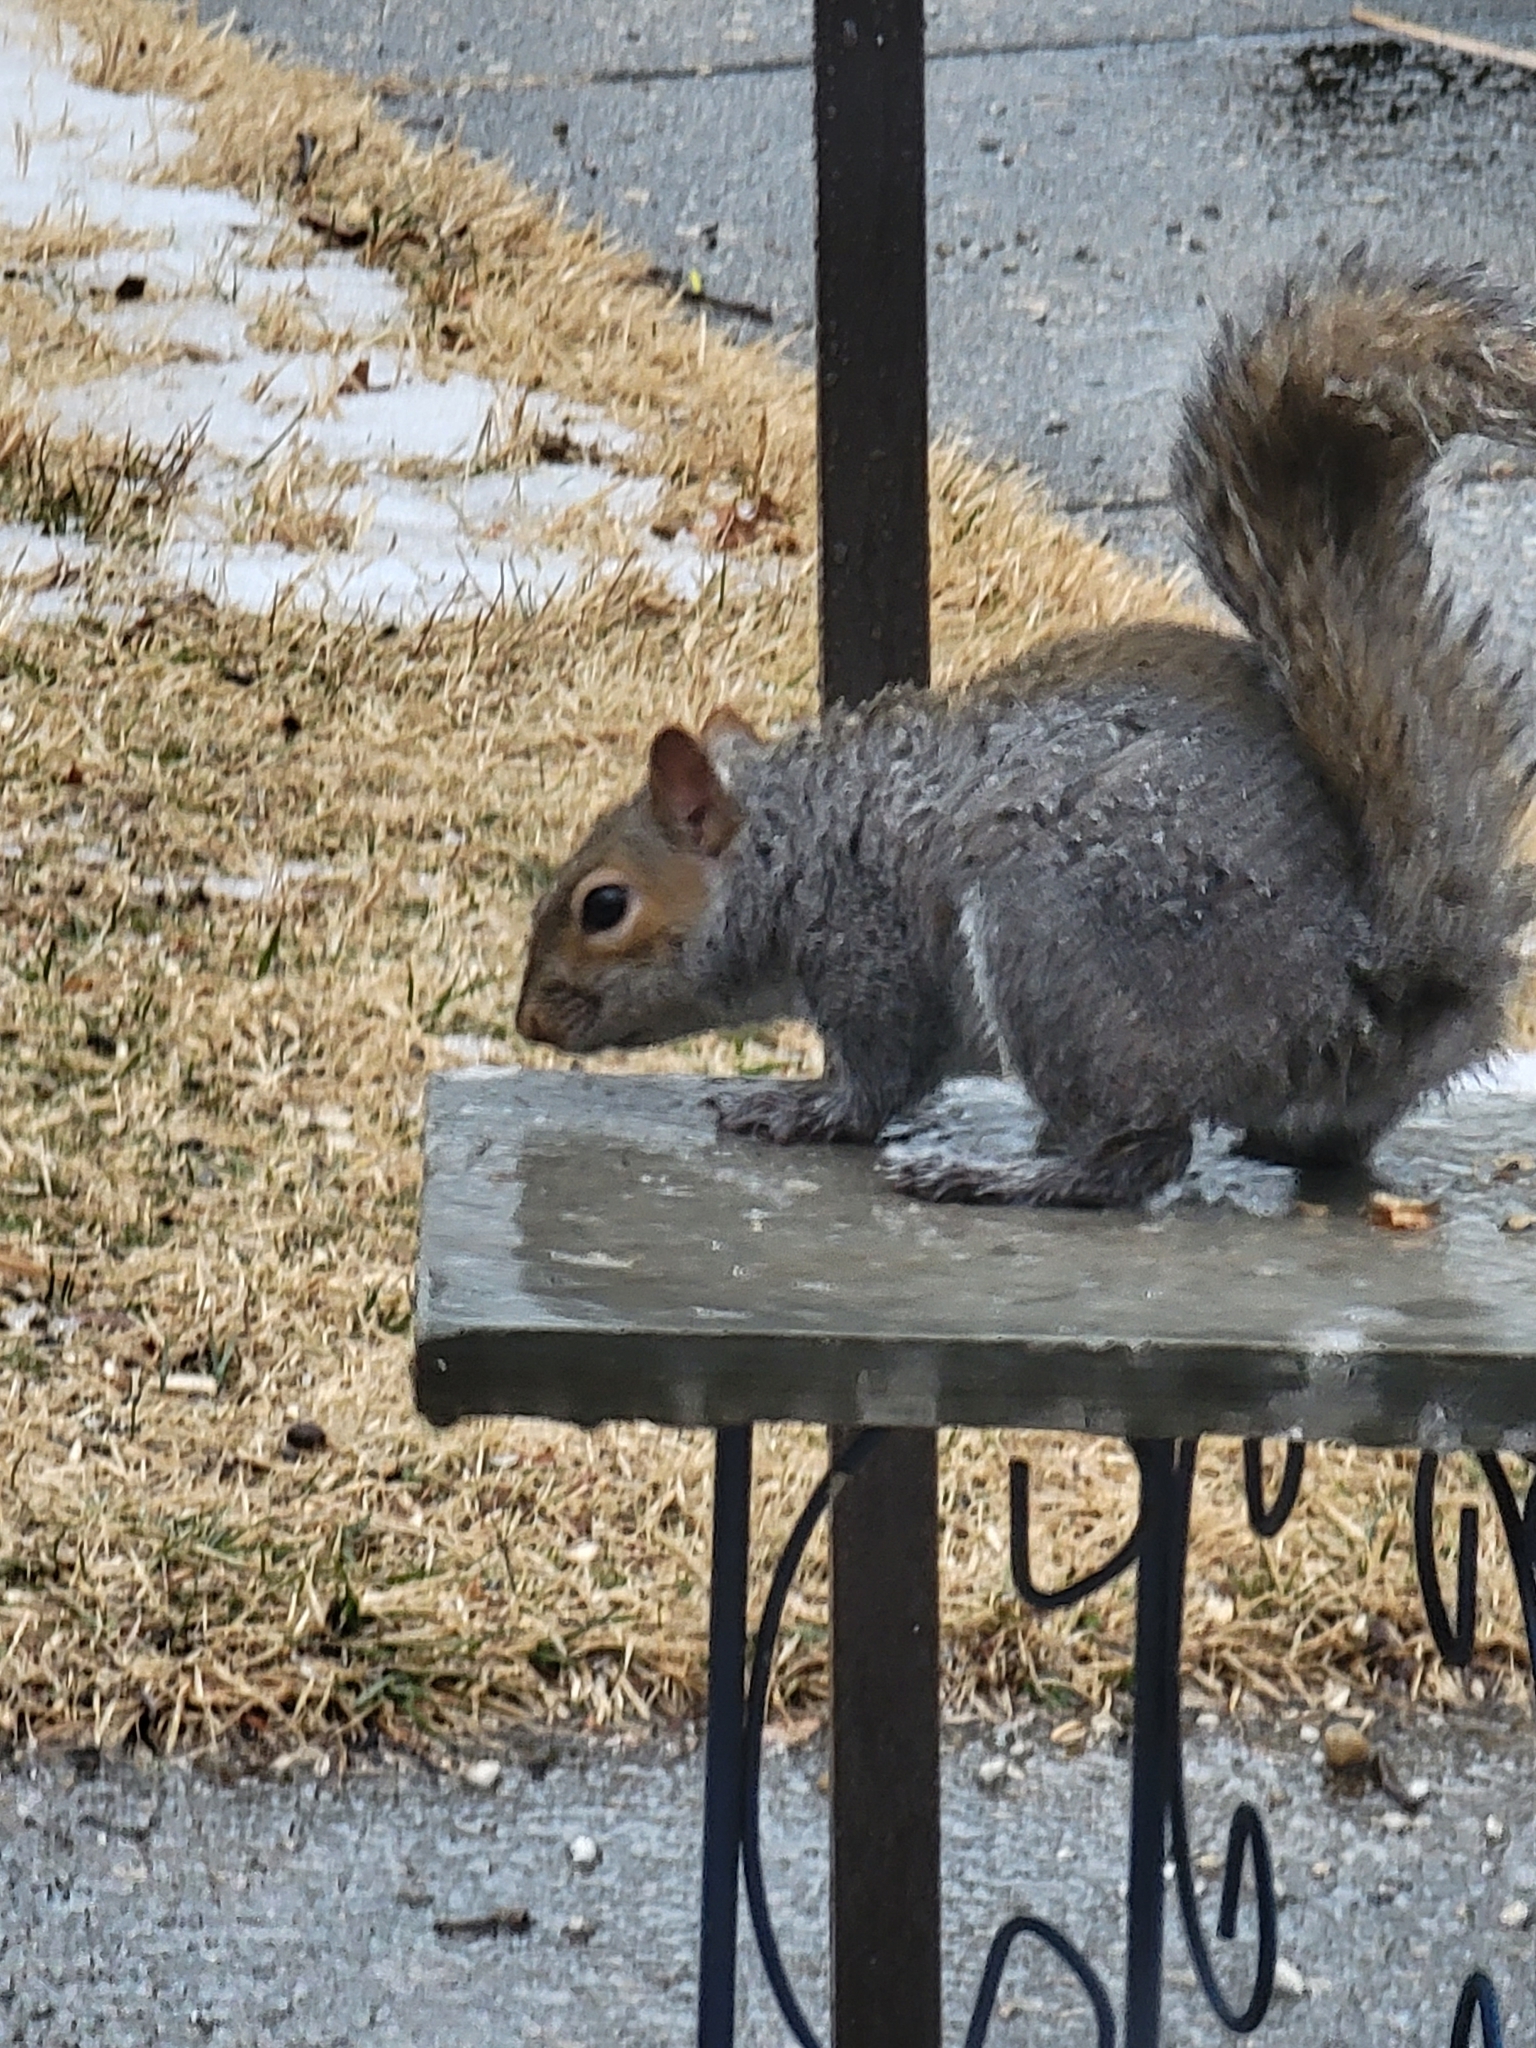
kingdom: Animalia
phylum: Chordata
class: Mammalia
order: Rodentia
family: Sciuridae
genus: Sciurus
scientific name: Sciurus carolinensis
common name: Eastern gray squirrel
